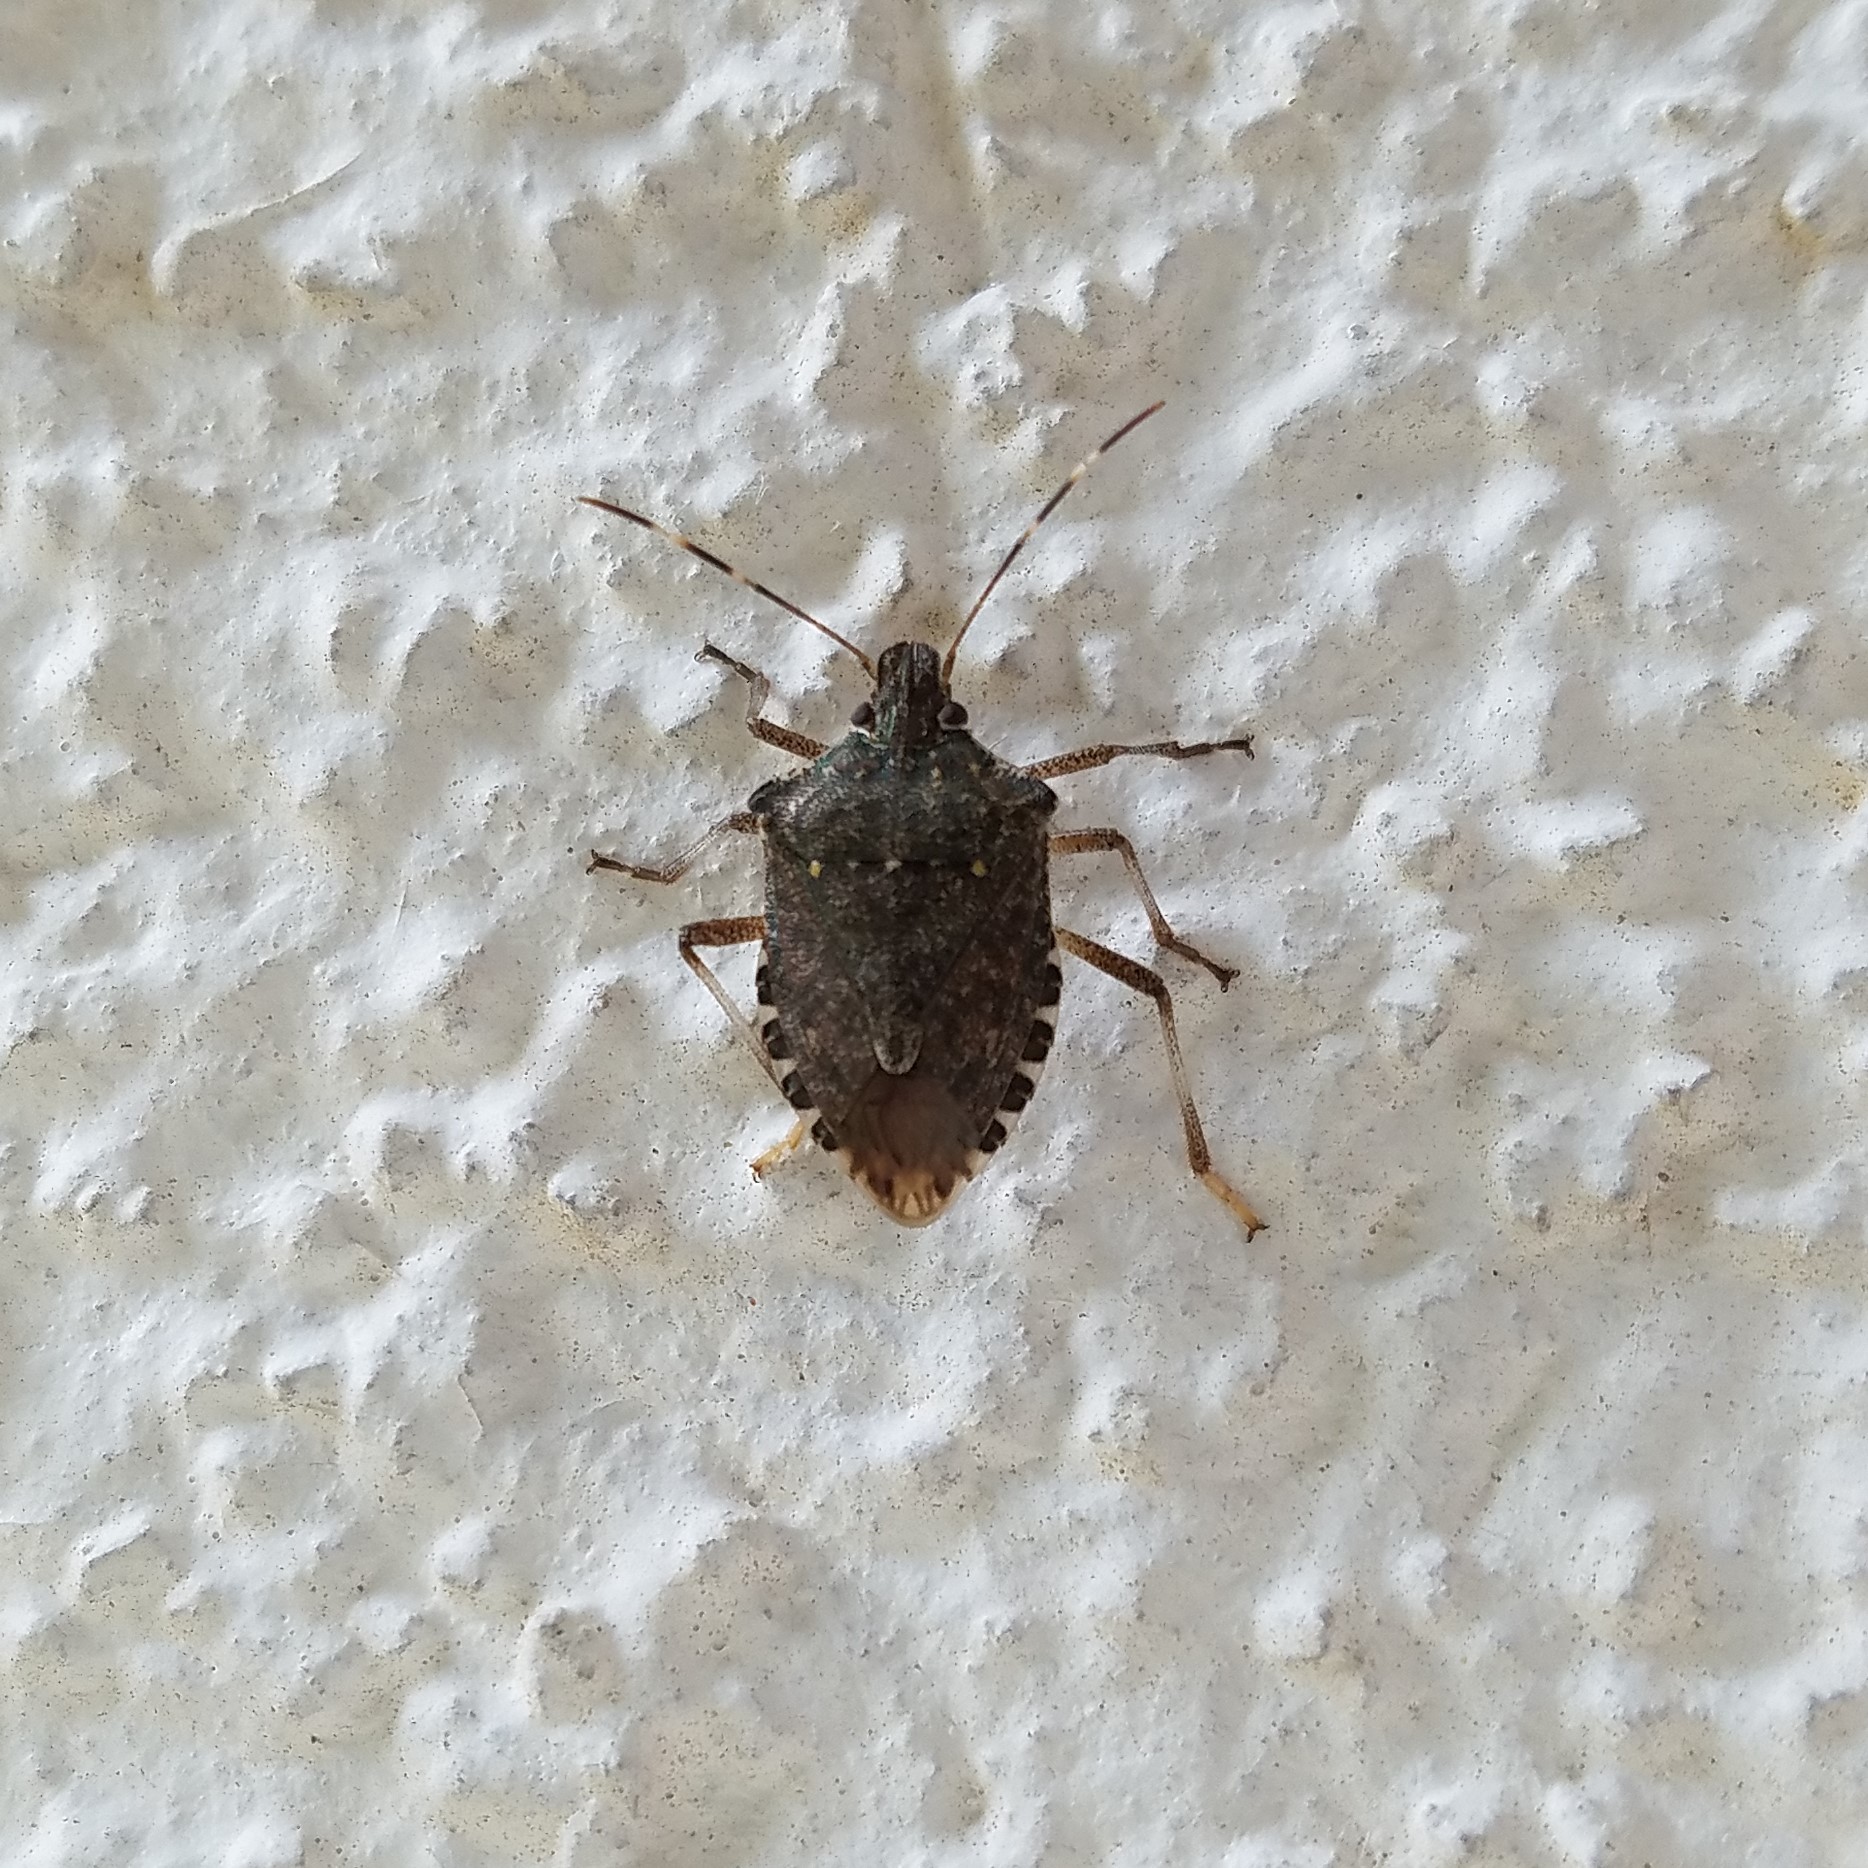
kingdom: Animalia
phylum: Arthropoda
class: Insecta
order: Hemiptera
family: Pentatomidae
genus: Halyomorpha
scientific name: Halyomorpha halys
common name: Brown marmorated stink bug
